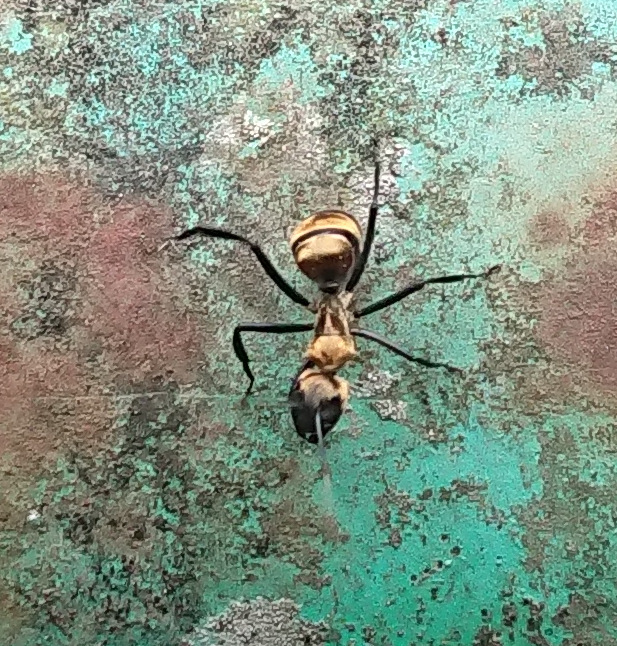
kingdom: Animalia
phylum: Arthropoda
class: Insecta
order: Hymenoptera
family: Formicidae
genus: Camponotus
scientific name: Camponotus sericeiventris
